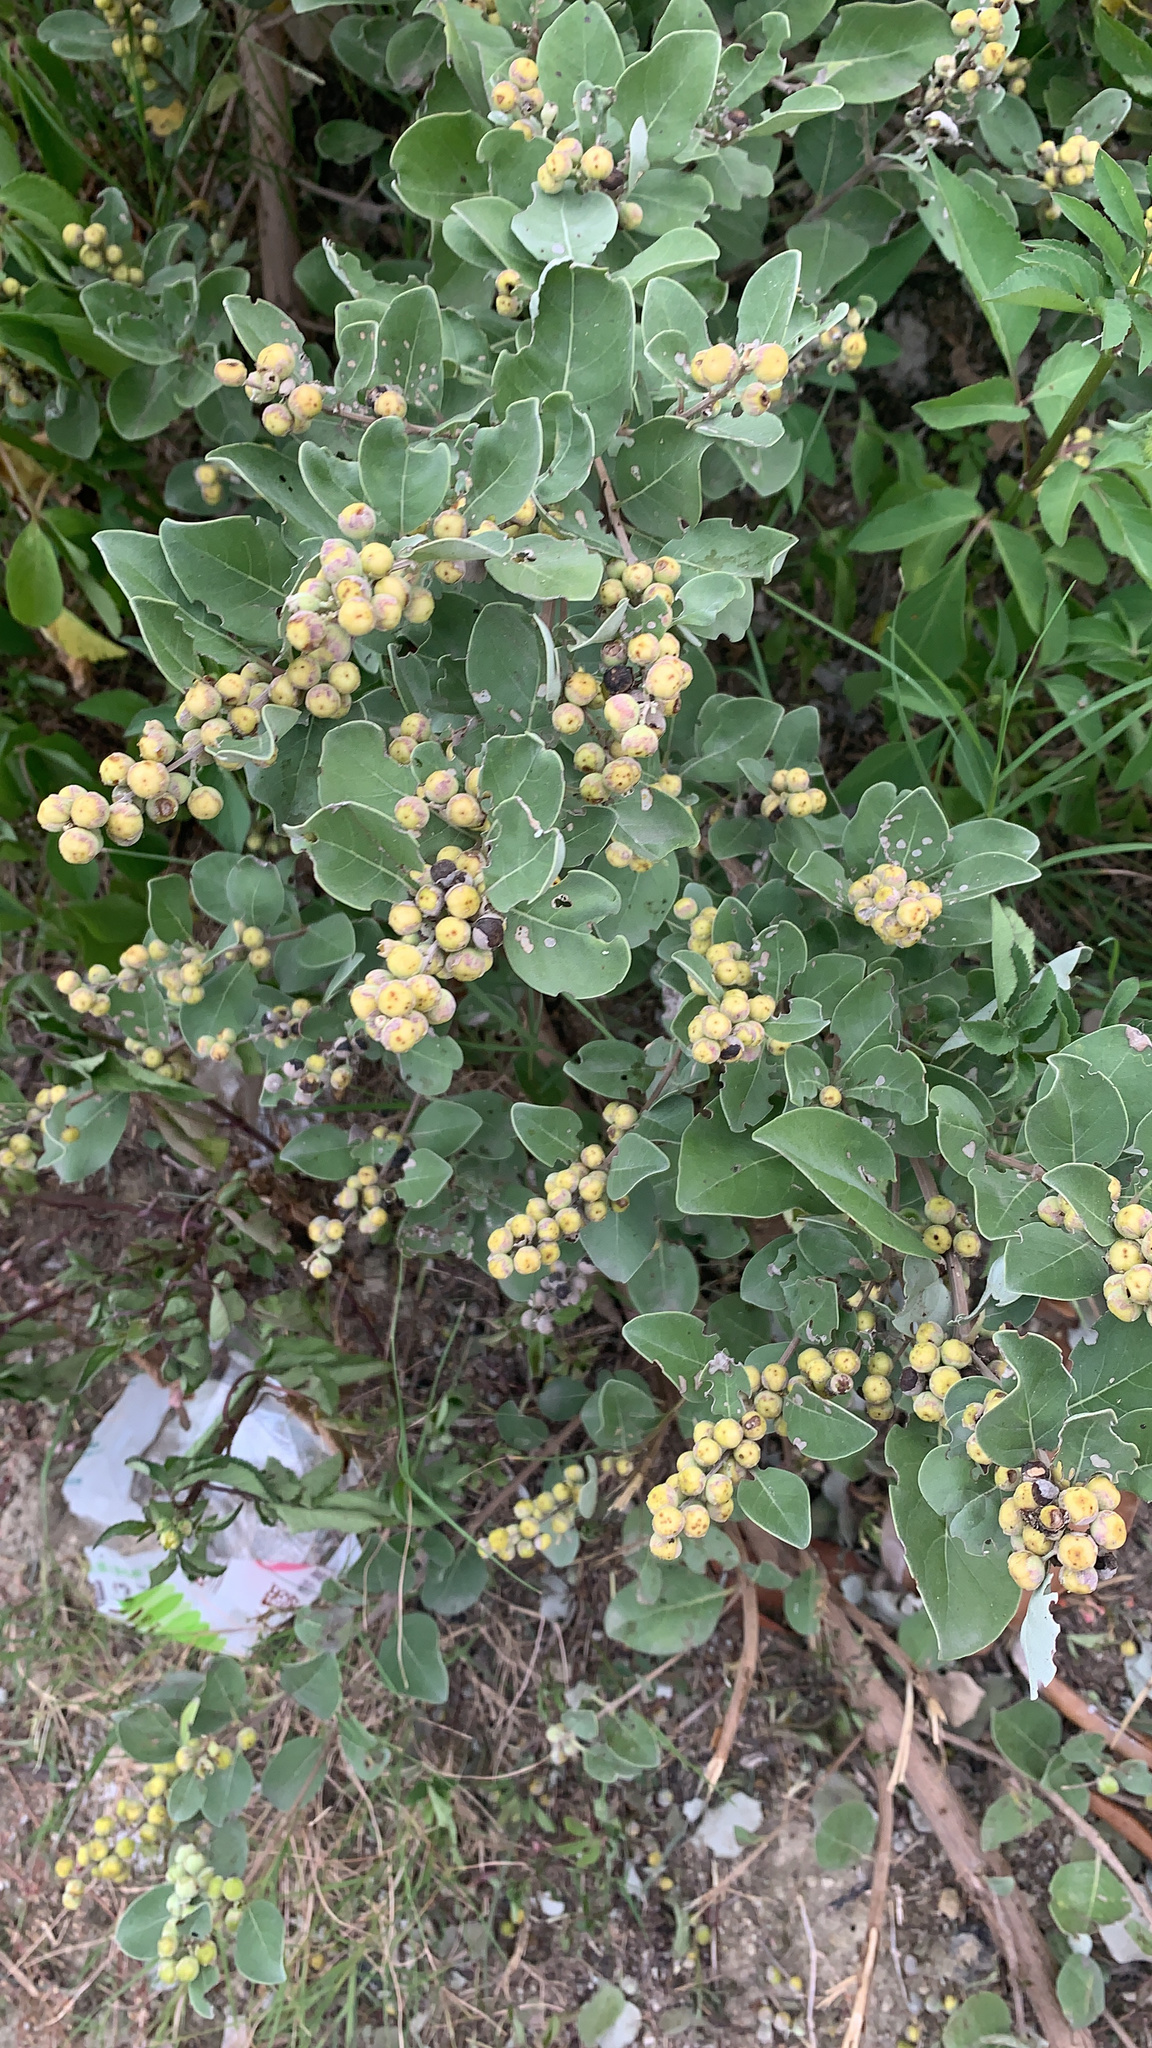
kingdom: Plantae
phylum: Tracheophyta
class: Magnoliopsida
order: Lamiales
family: Lamiaceae
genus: Vitex
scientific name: Vitex rotundifolia
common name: Beach vitex
